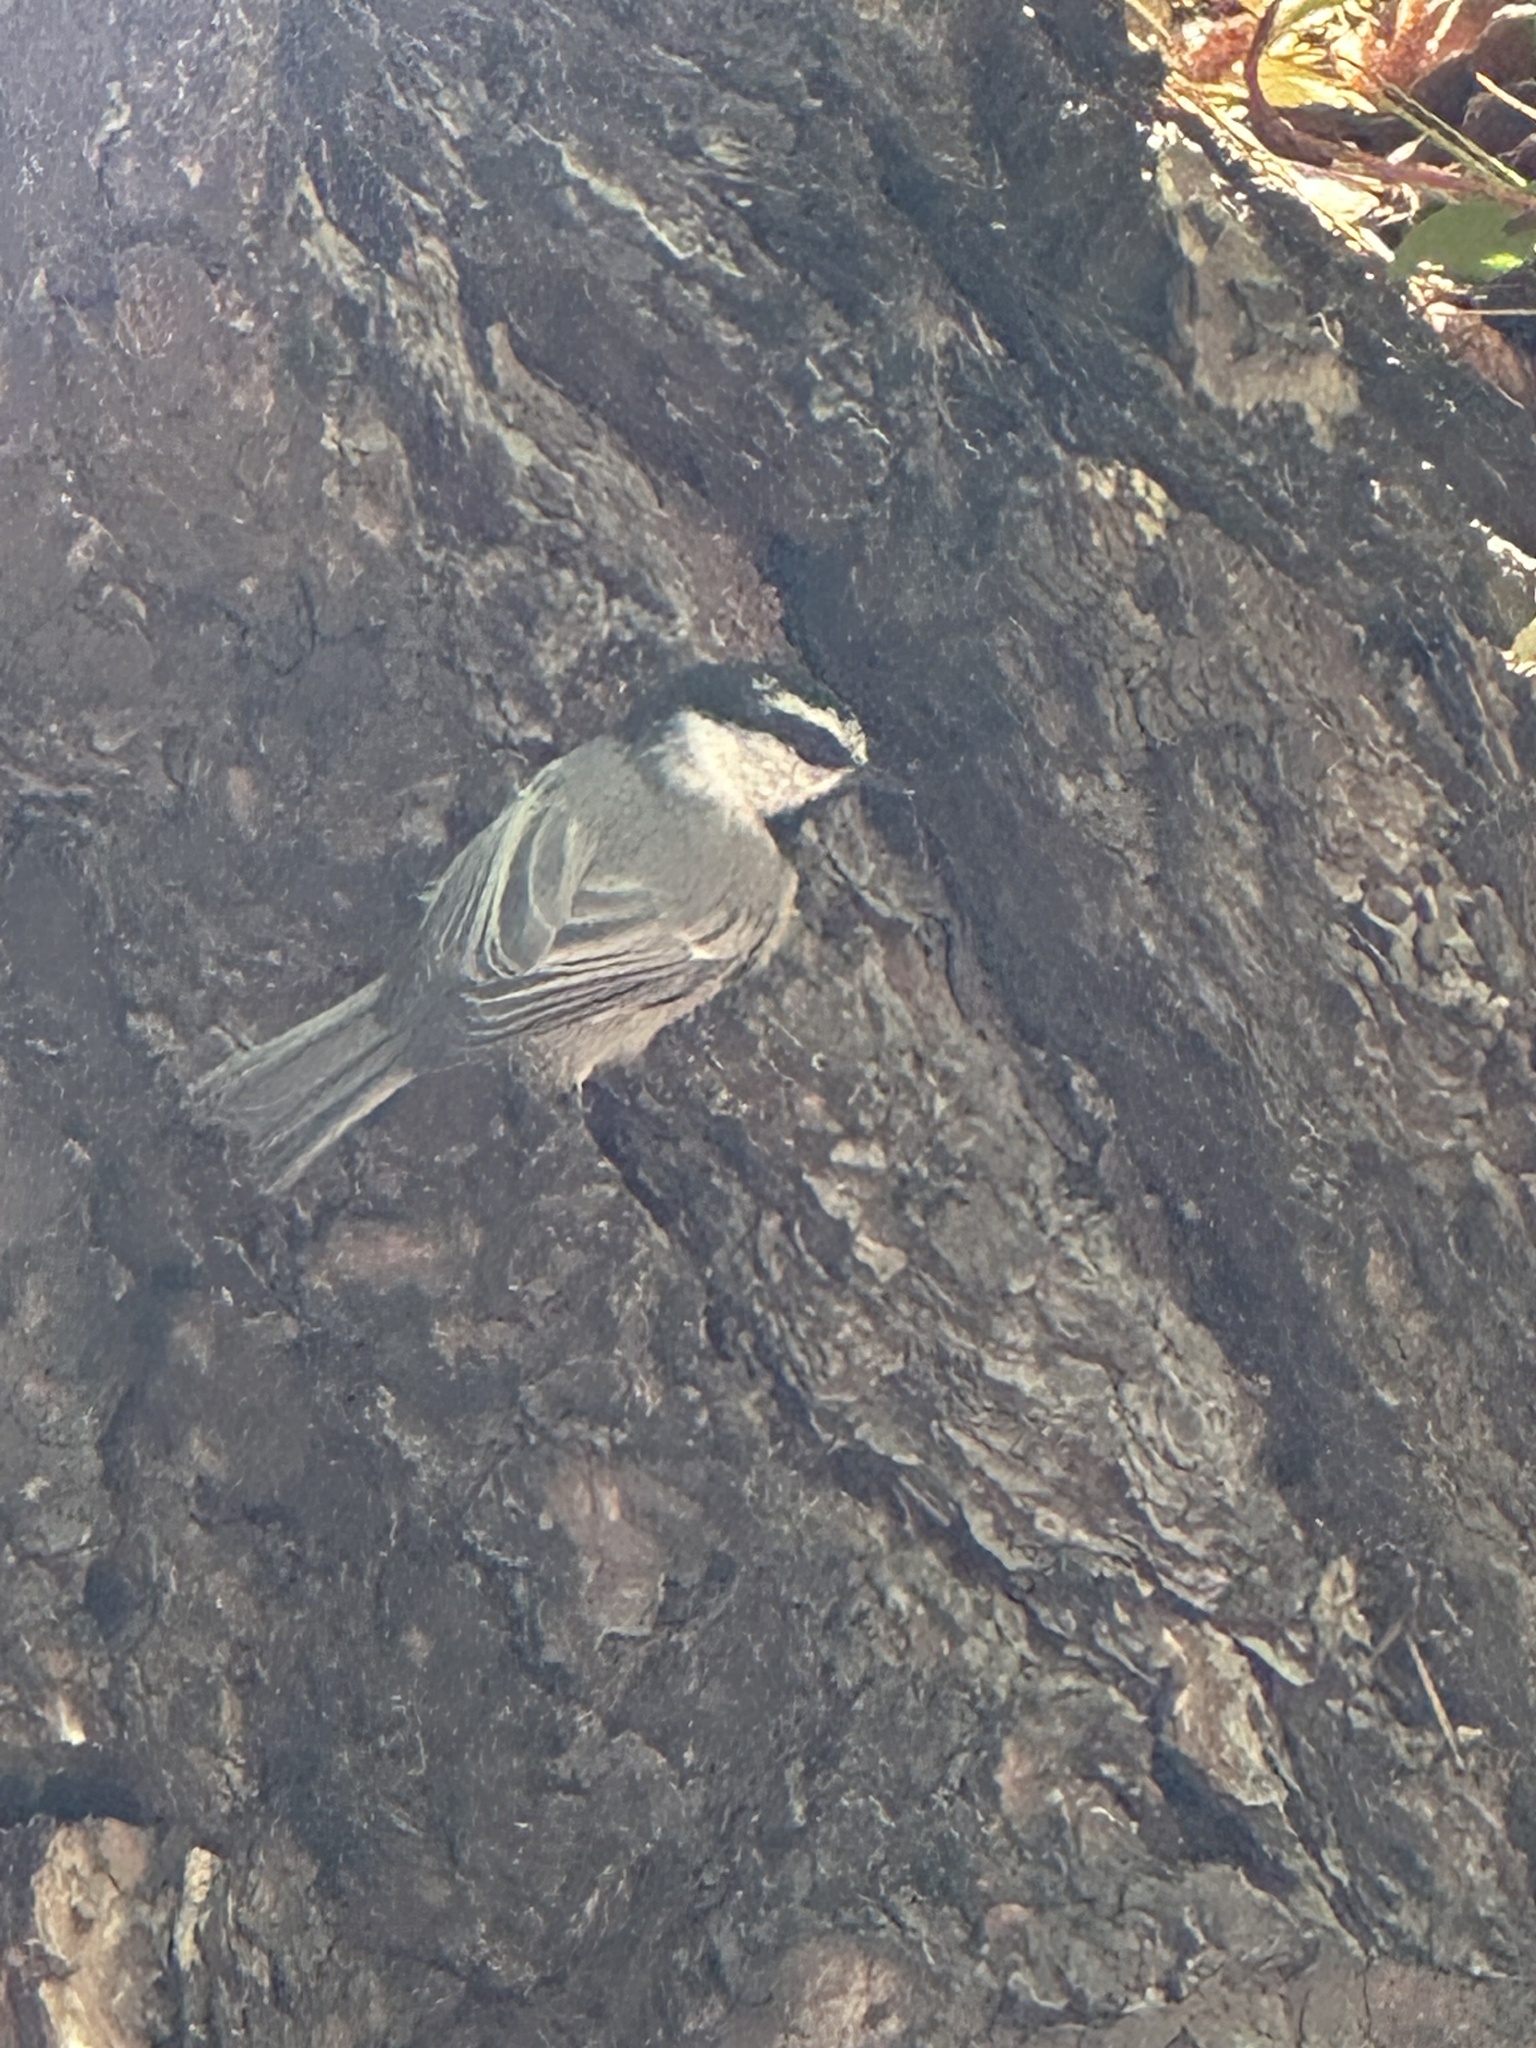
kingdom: Animalia
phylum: Chordata
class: Aves
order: Passeriformes
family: Paridae
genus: Poecile
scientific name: Poecile gambeli
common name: Mountain chickadee
